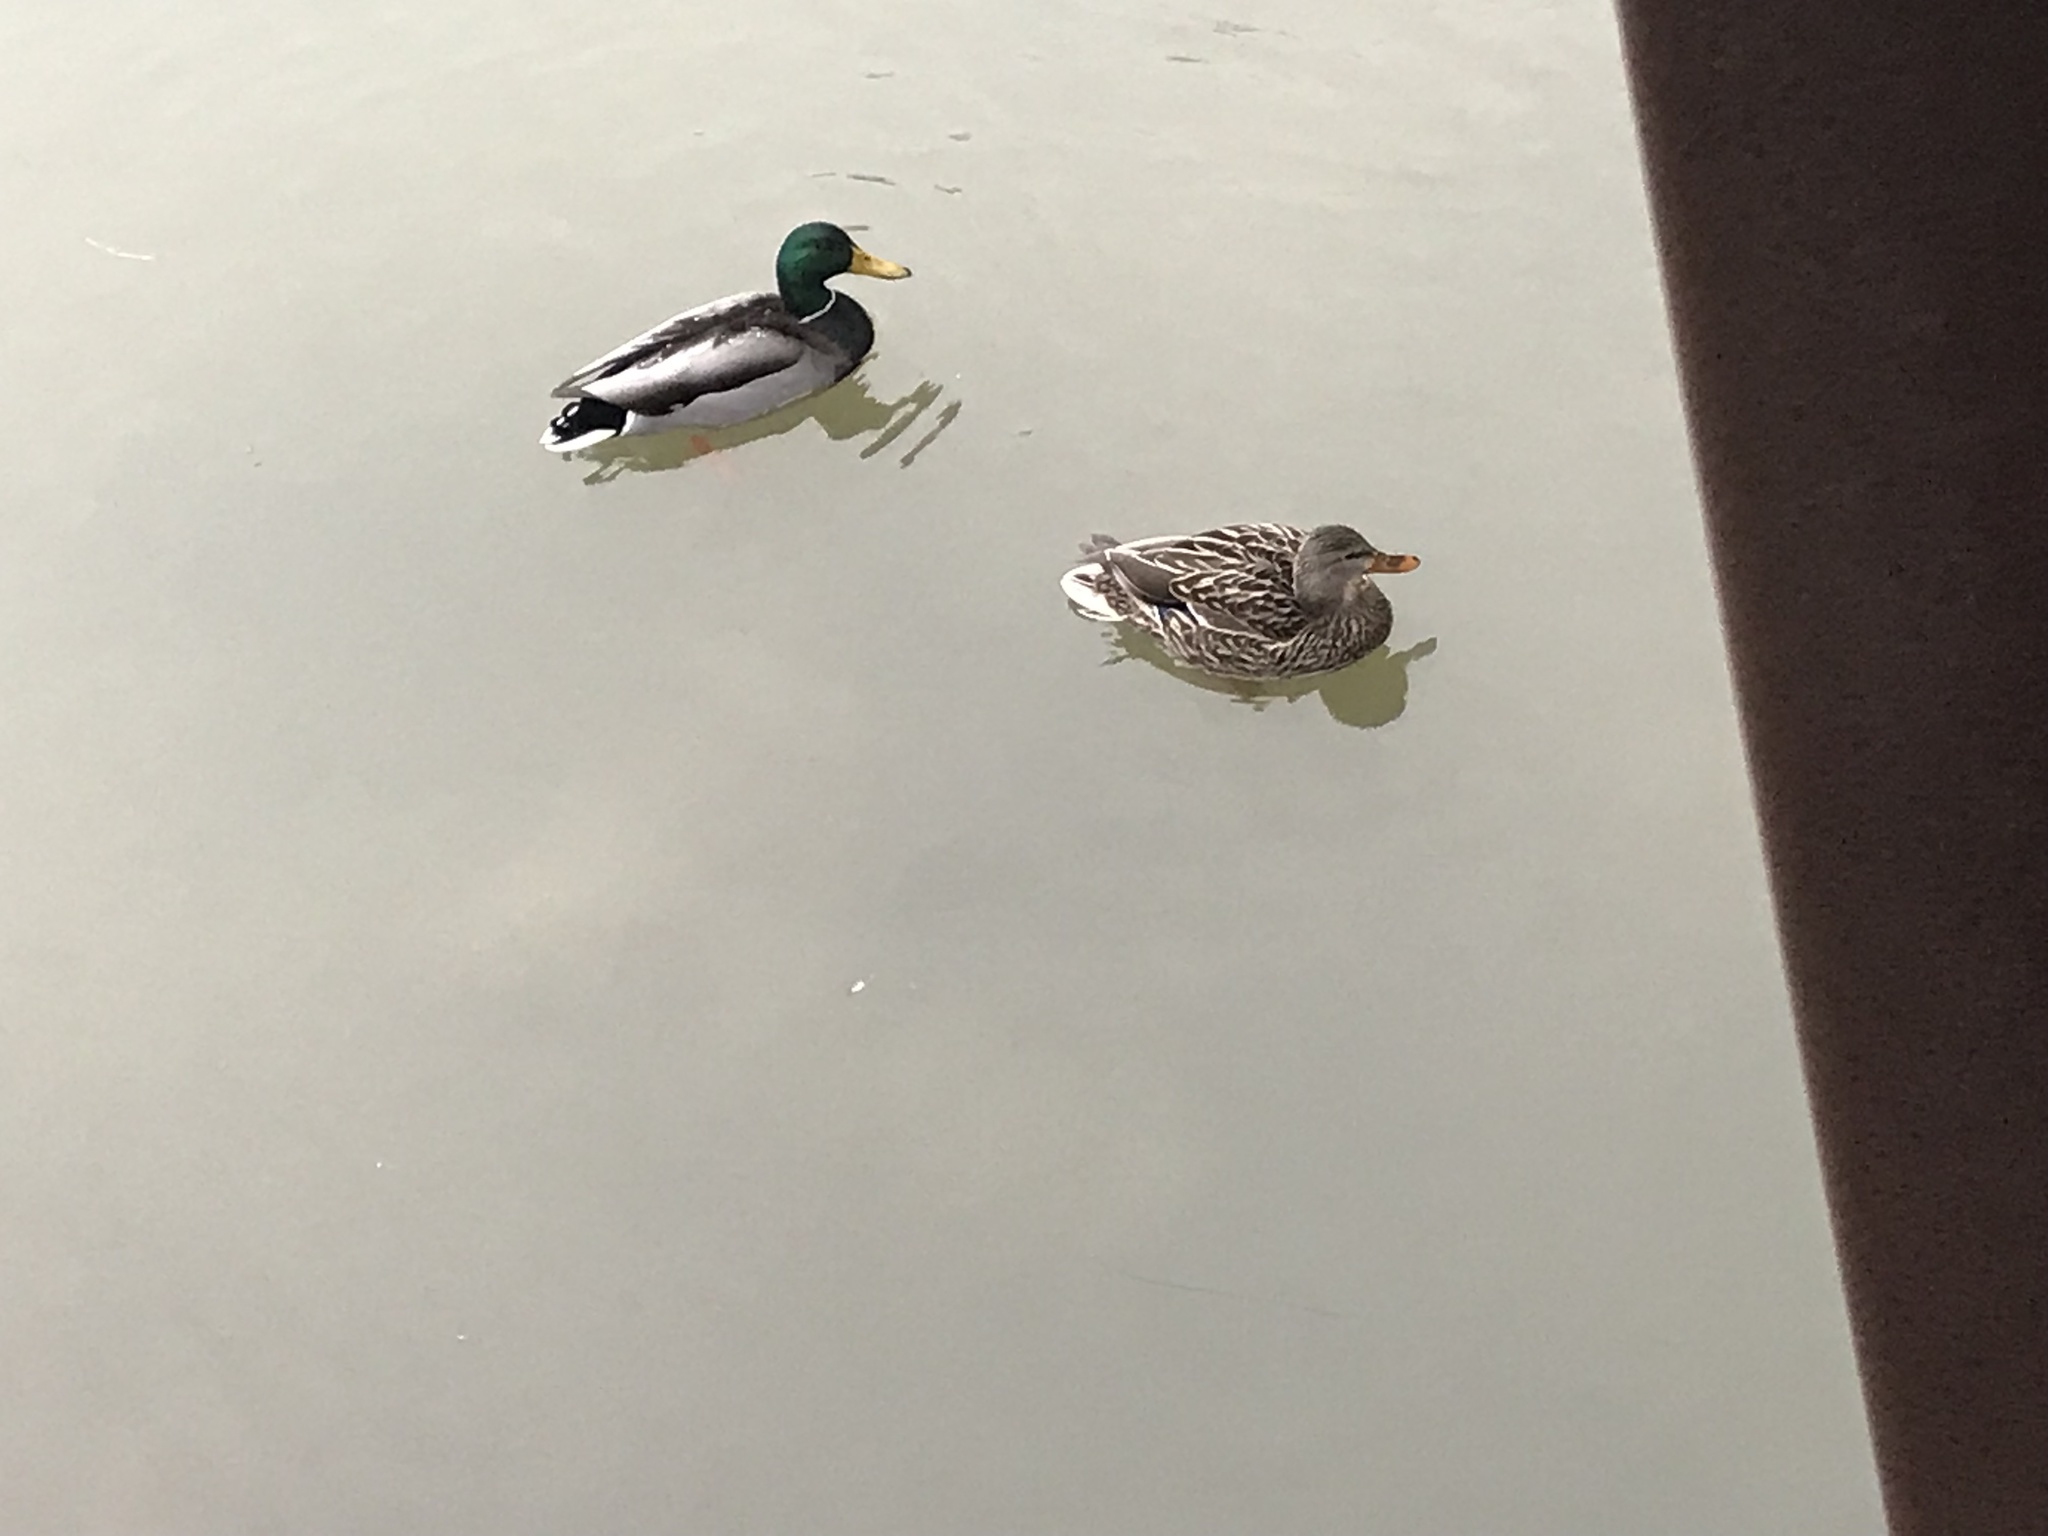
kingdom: Animalia
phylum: Chordata
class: Aves
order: Anseriformes
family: Anatidae
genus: Anas
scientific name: Anas platyrhynchos
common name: Mallard
